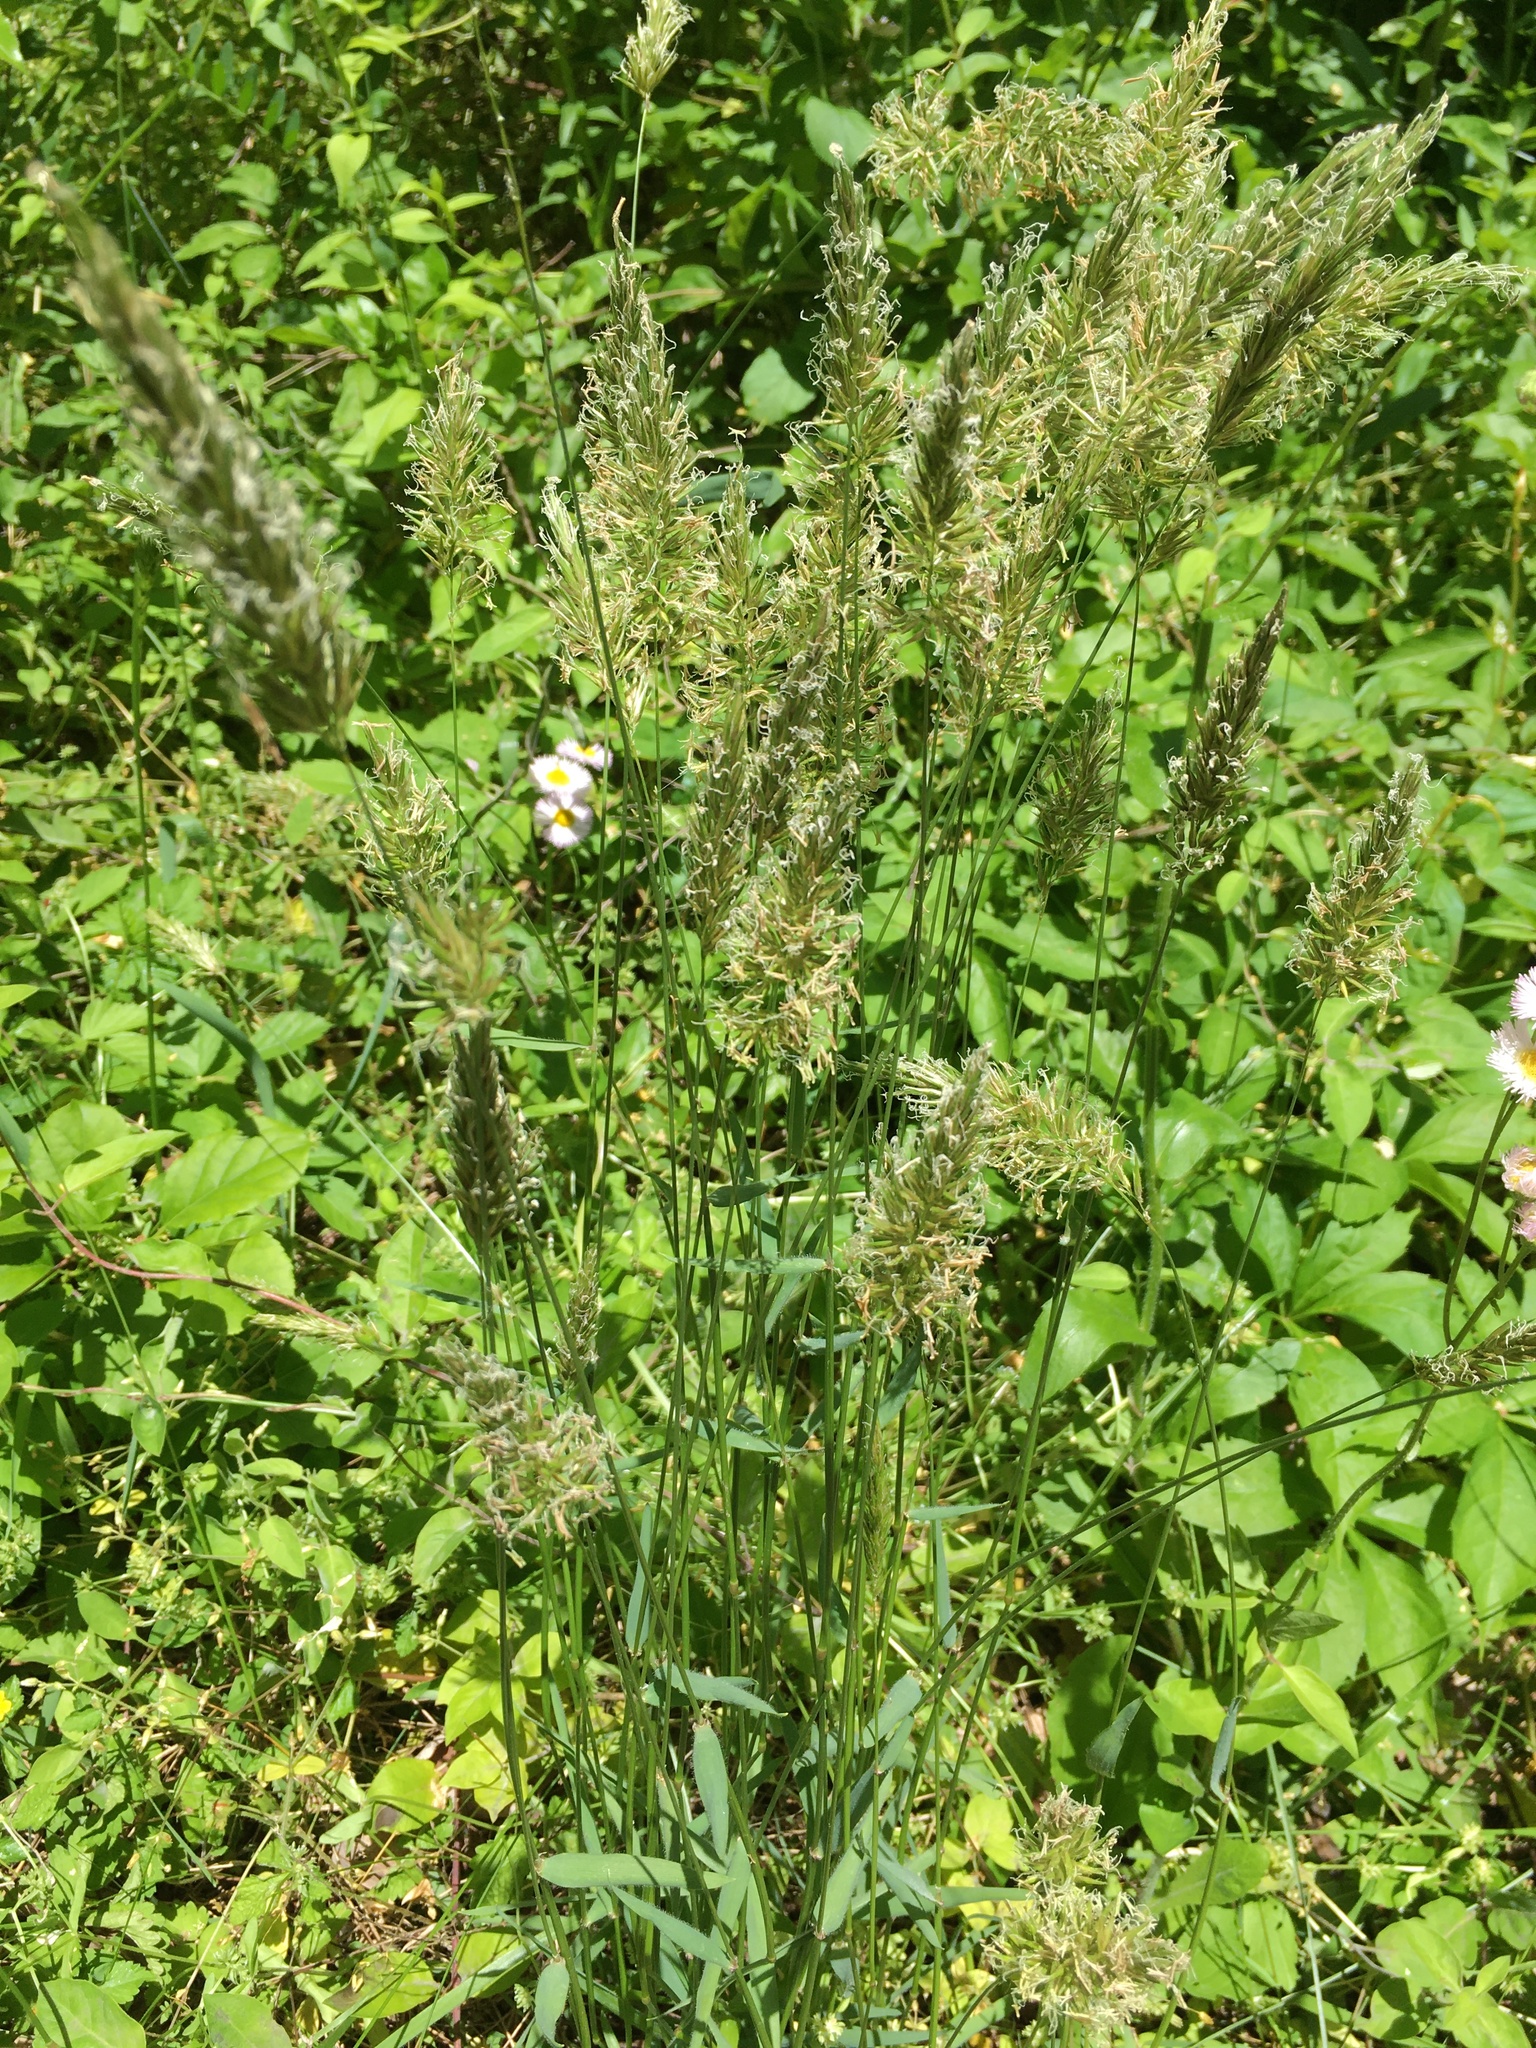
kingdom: Plantae
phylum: Tracheophyta
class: Liliopsida
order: Poales
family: Poaceae
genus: Anthoxanthum
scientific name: Anthoxanthum odoratum
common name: Sweet vernalgrass
